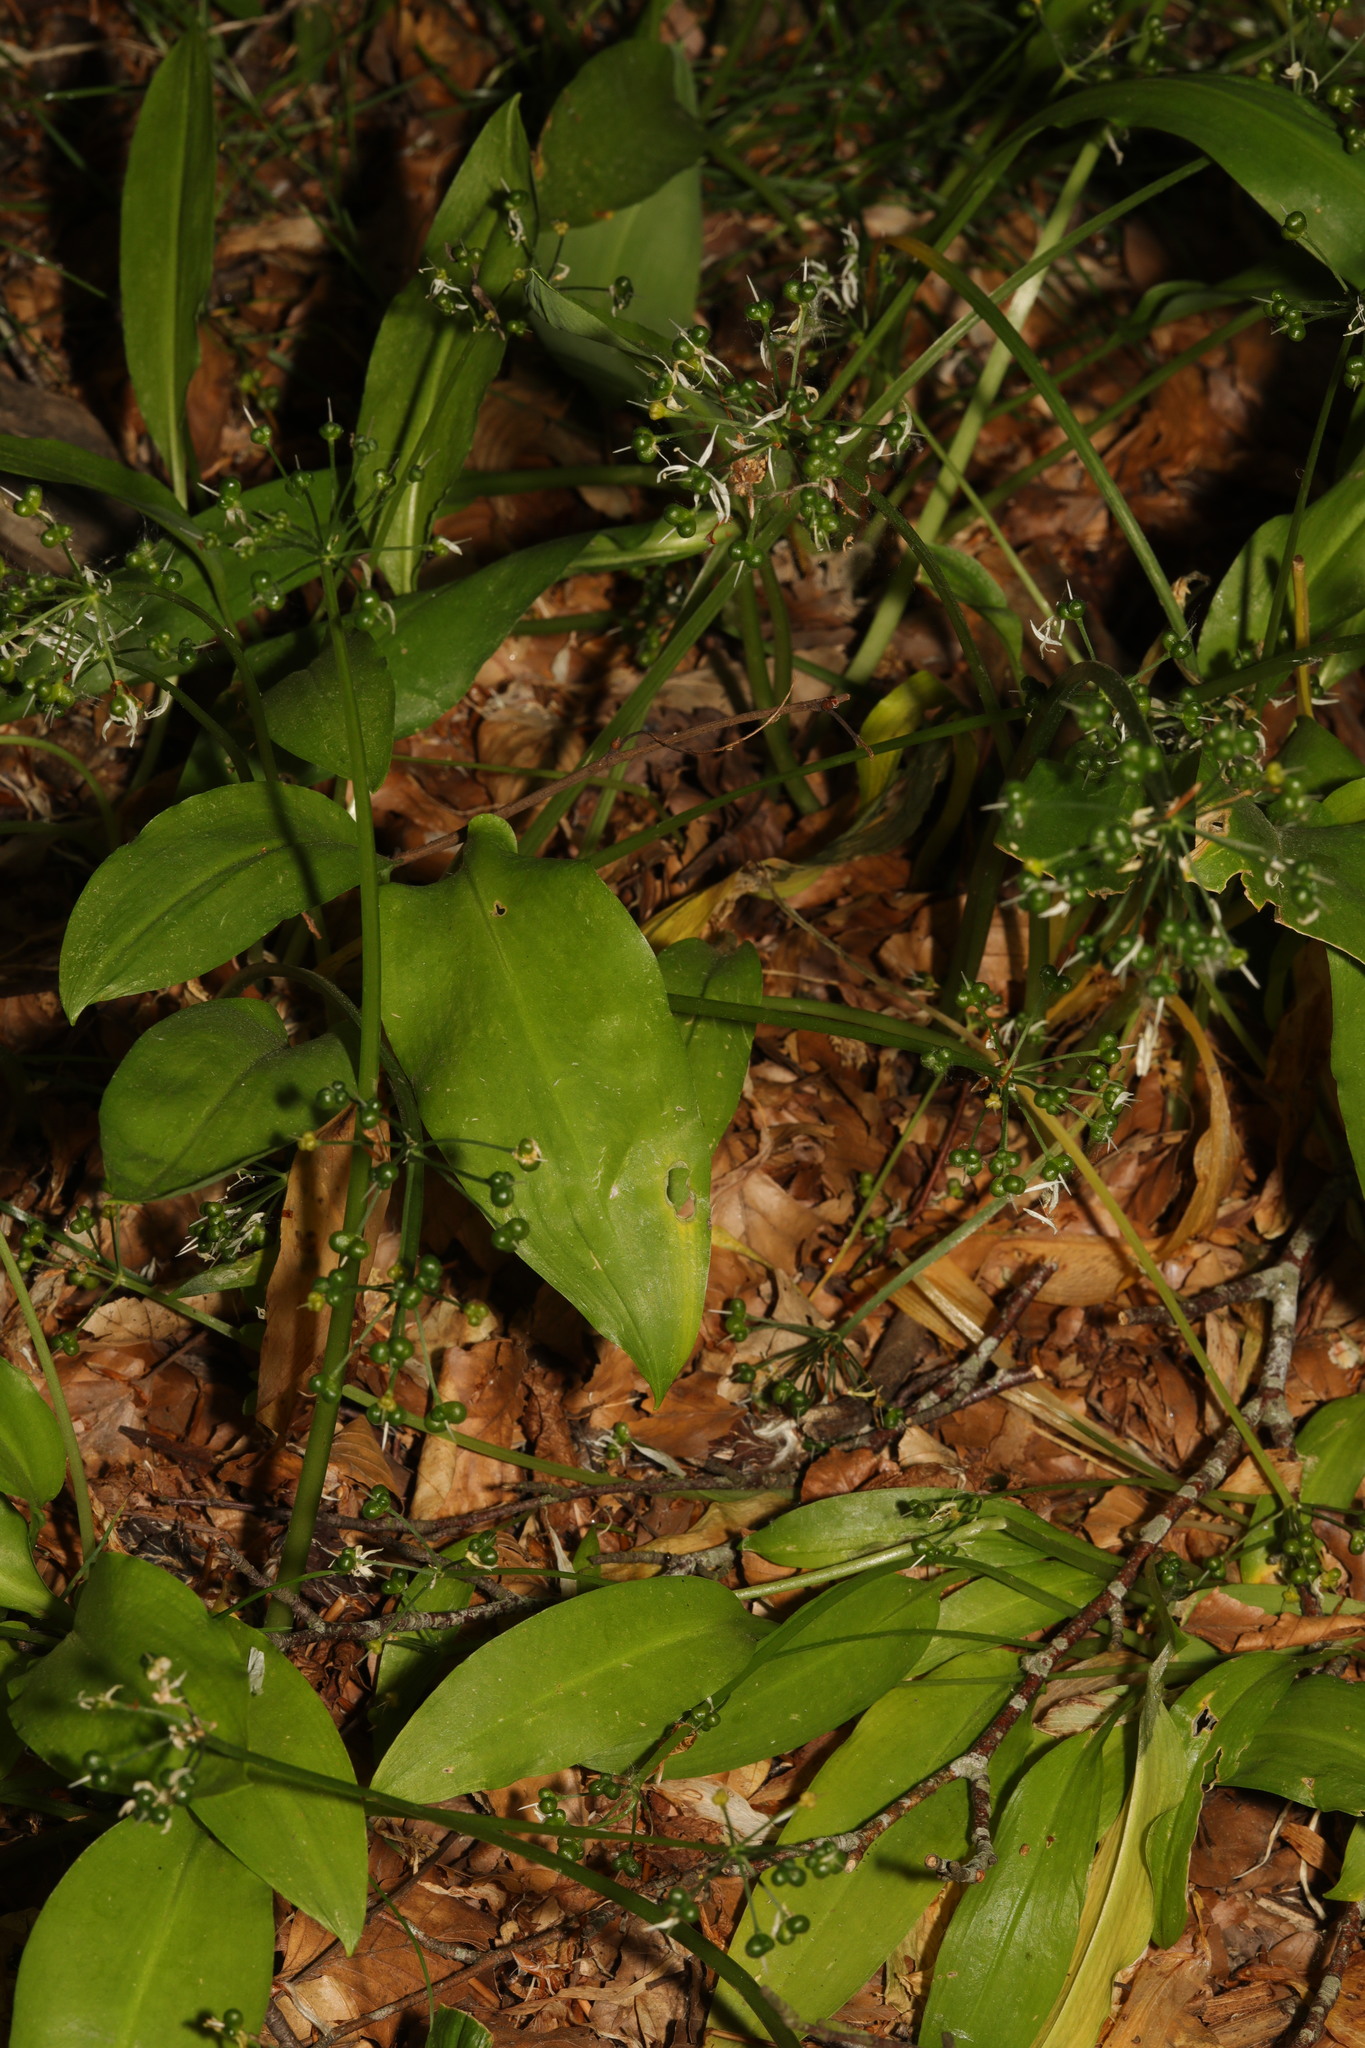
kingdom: Plantae
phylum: Tracheophyta
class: Liliopsida
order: Asparagales
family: Amaryllidaceae
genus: Allium
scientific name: Allium ursinum
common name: Ramsons
